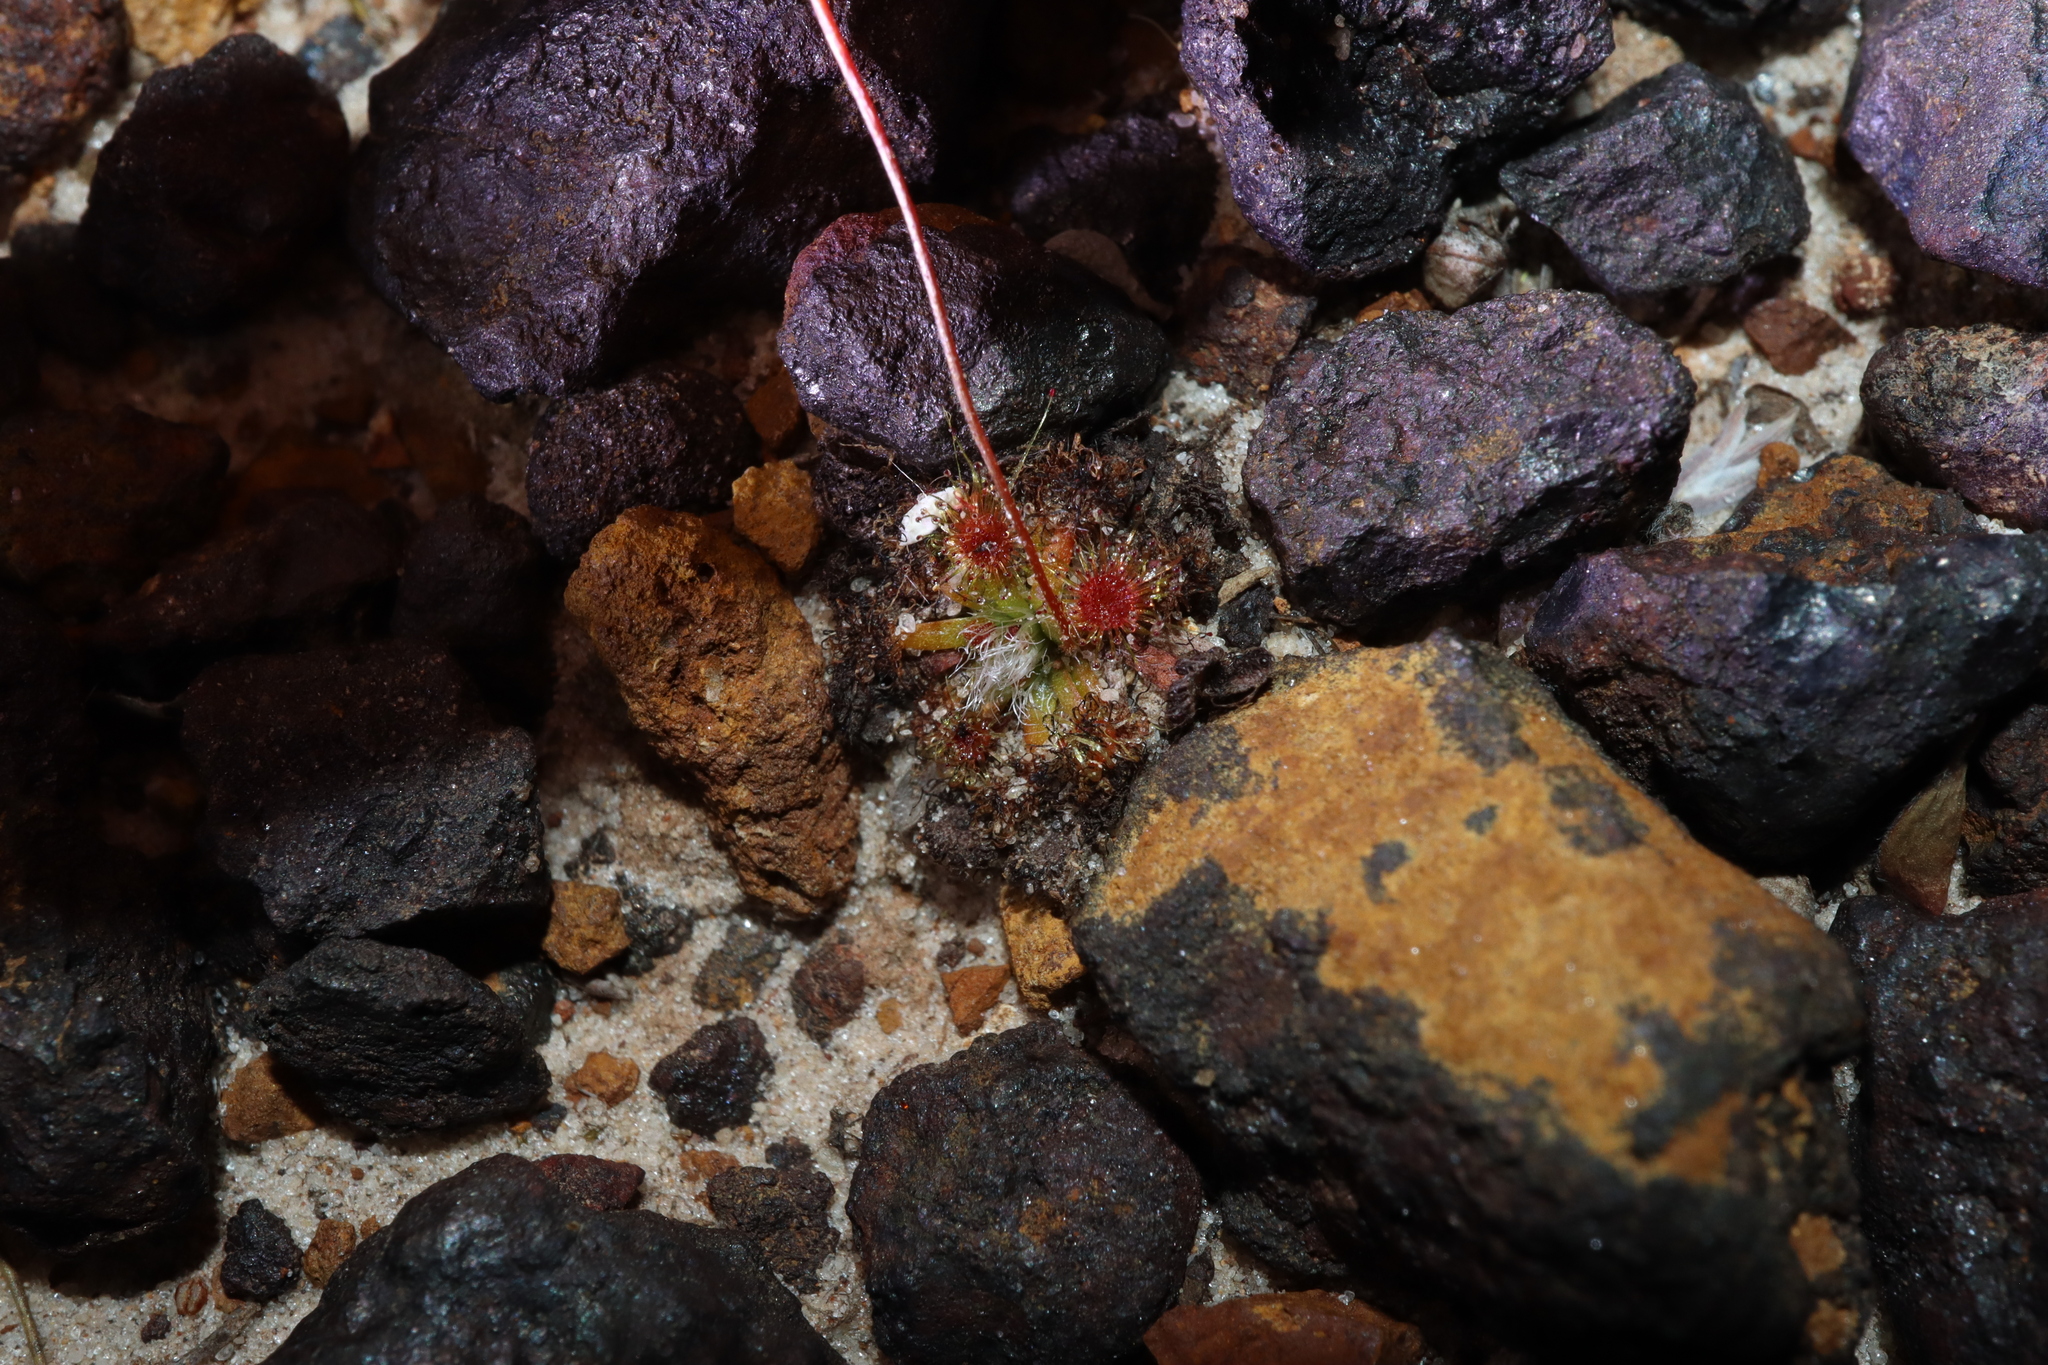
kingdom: Plantae
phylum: Tracheophyta
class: Magnoliopsida
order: Caryophyllales
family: Droseraceae
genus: Drosera
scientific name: Drosera platystigma
